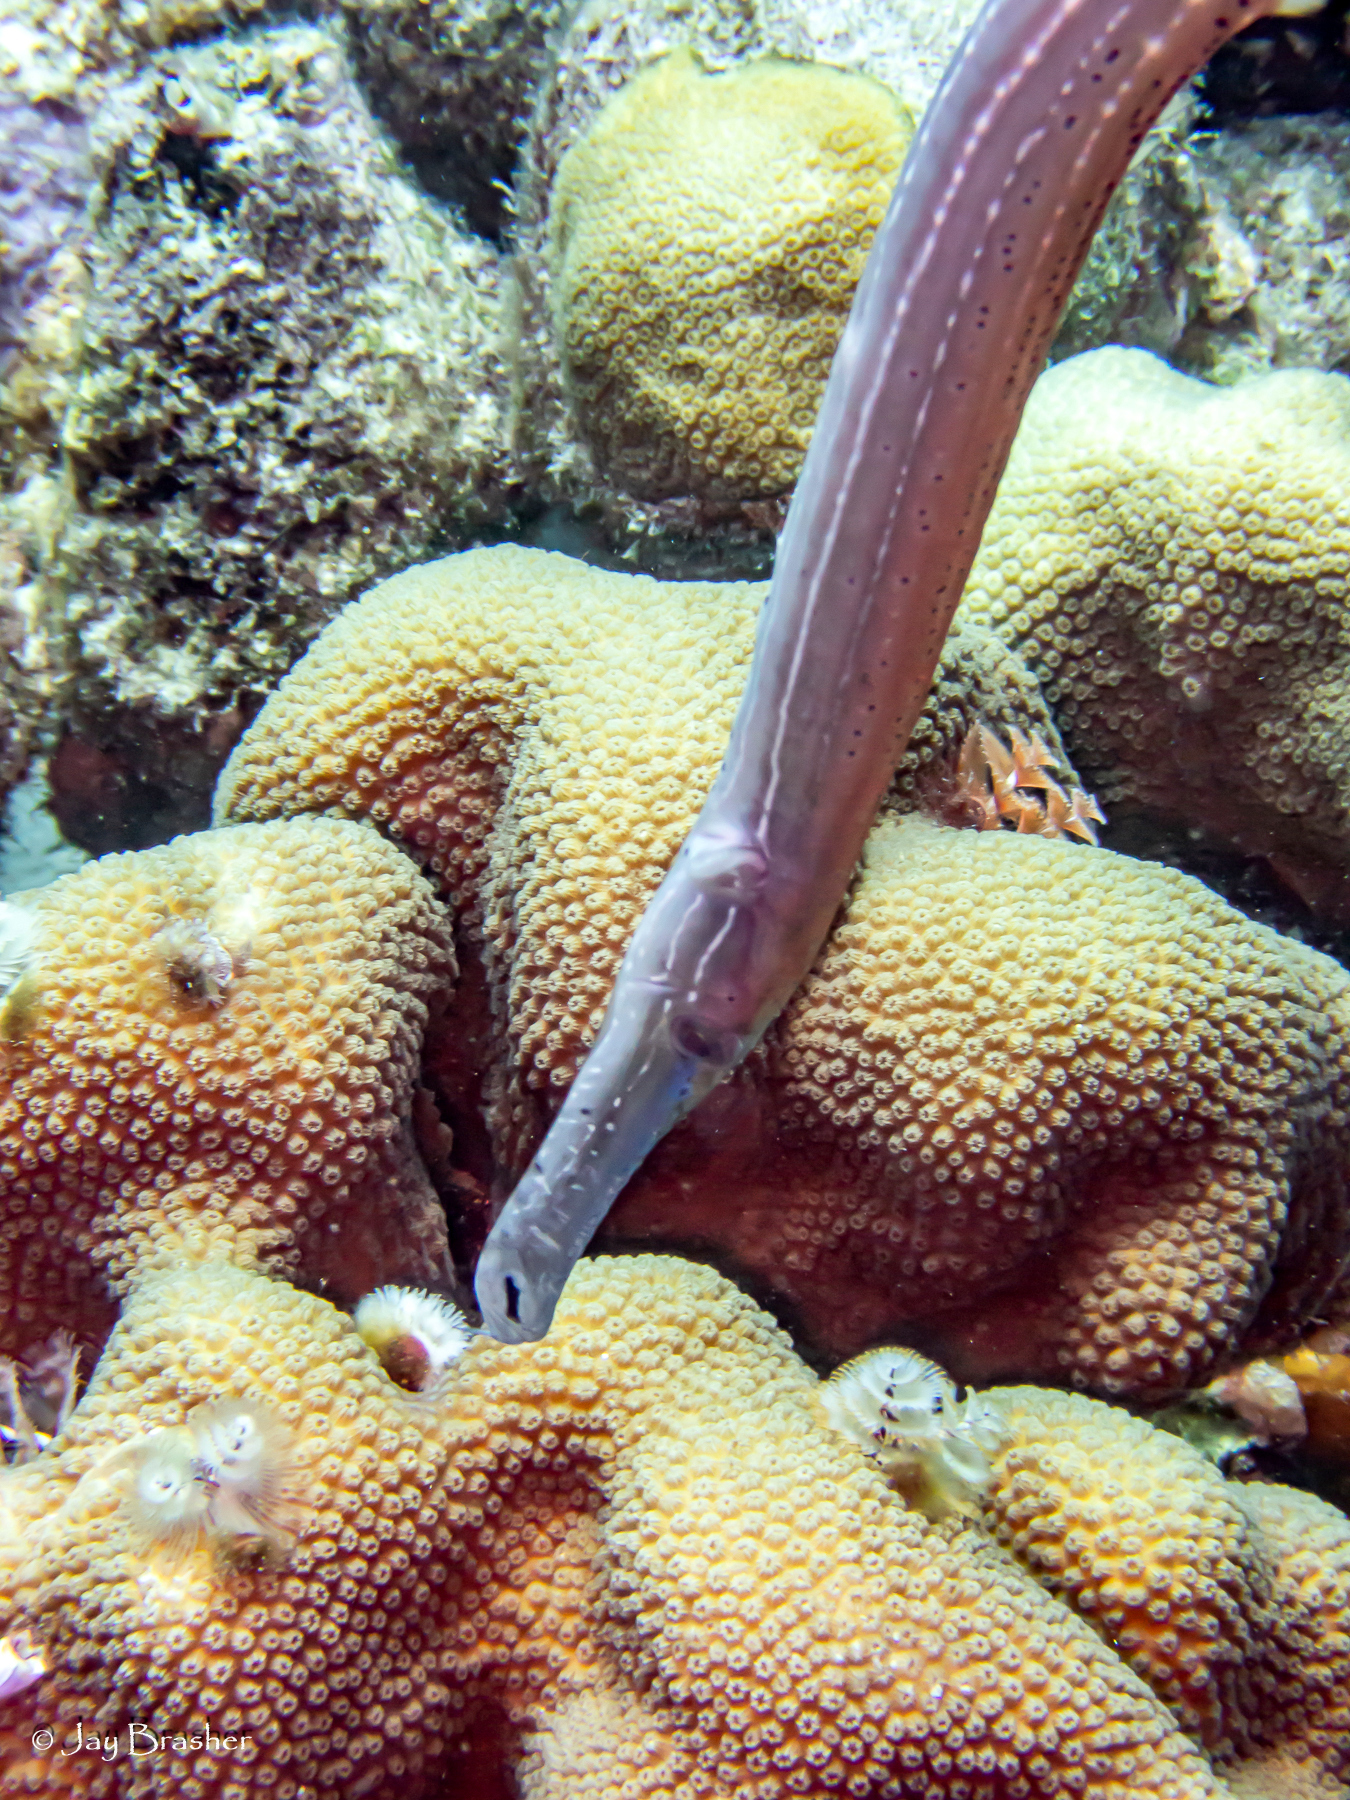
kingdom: Animalia
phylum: Chordata
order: Syngnathiformes
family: Aulostomidae
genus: Aulostomus
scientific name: Aulostomus maculatus
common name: West atlantic trumpetfish
